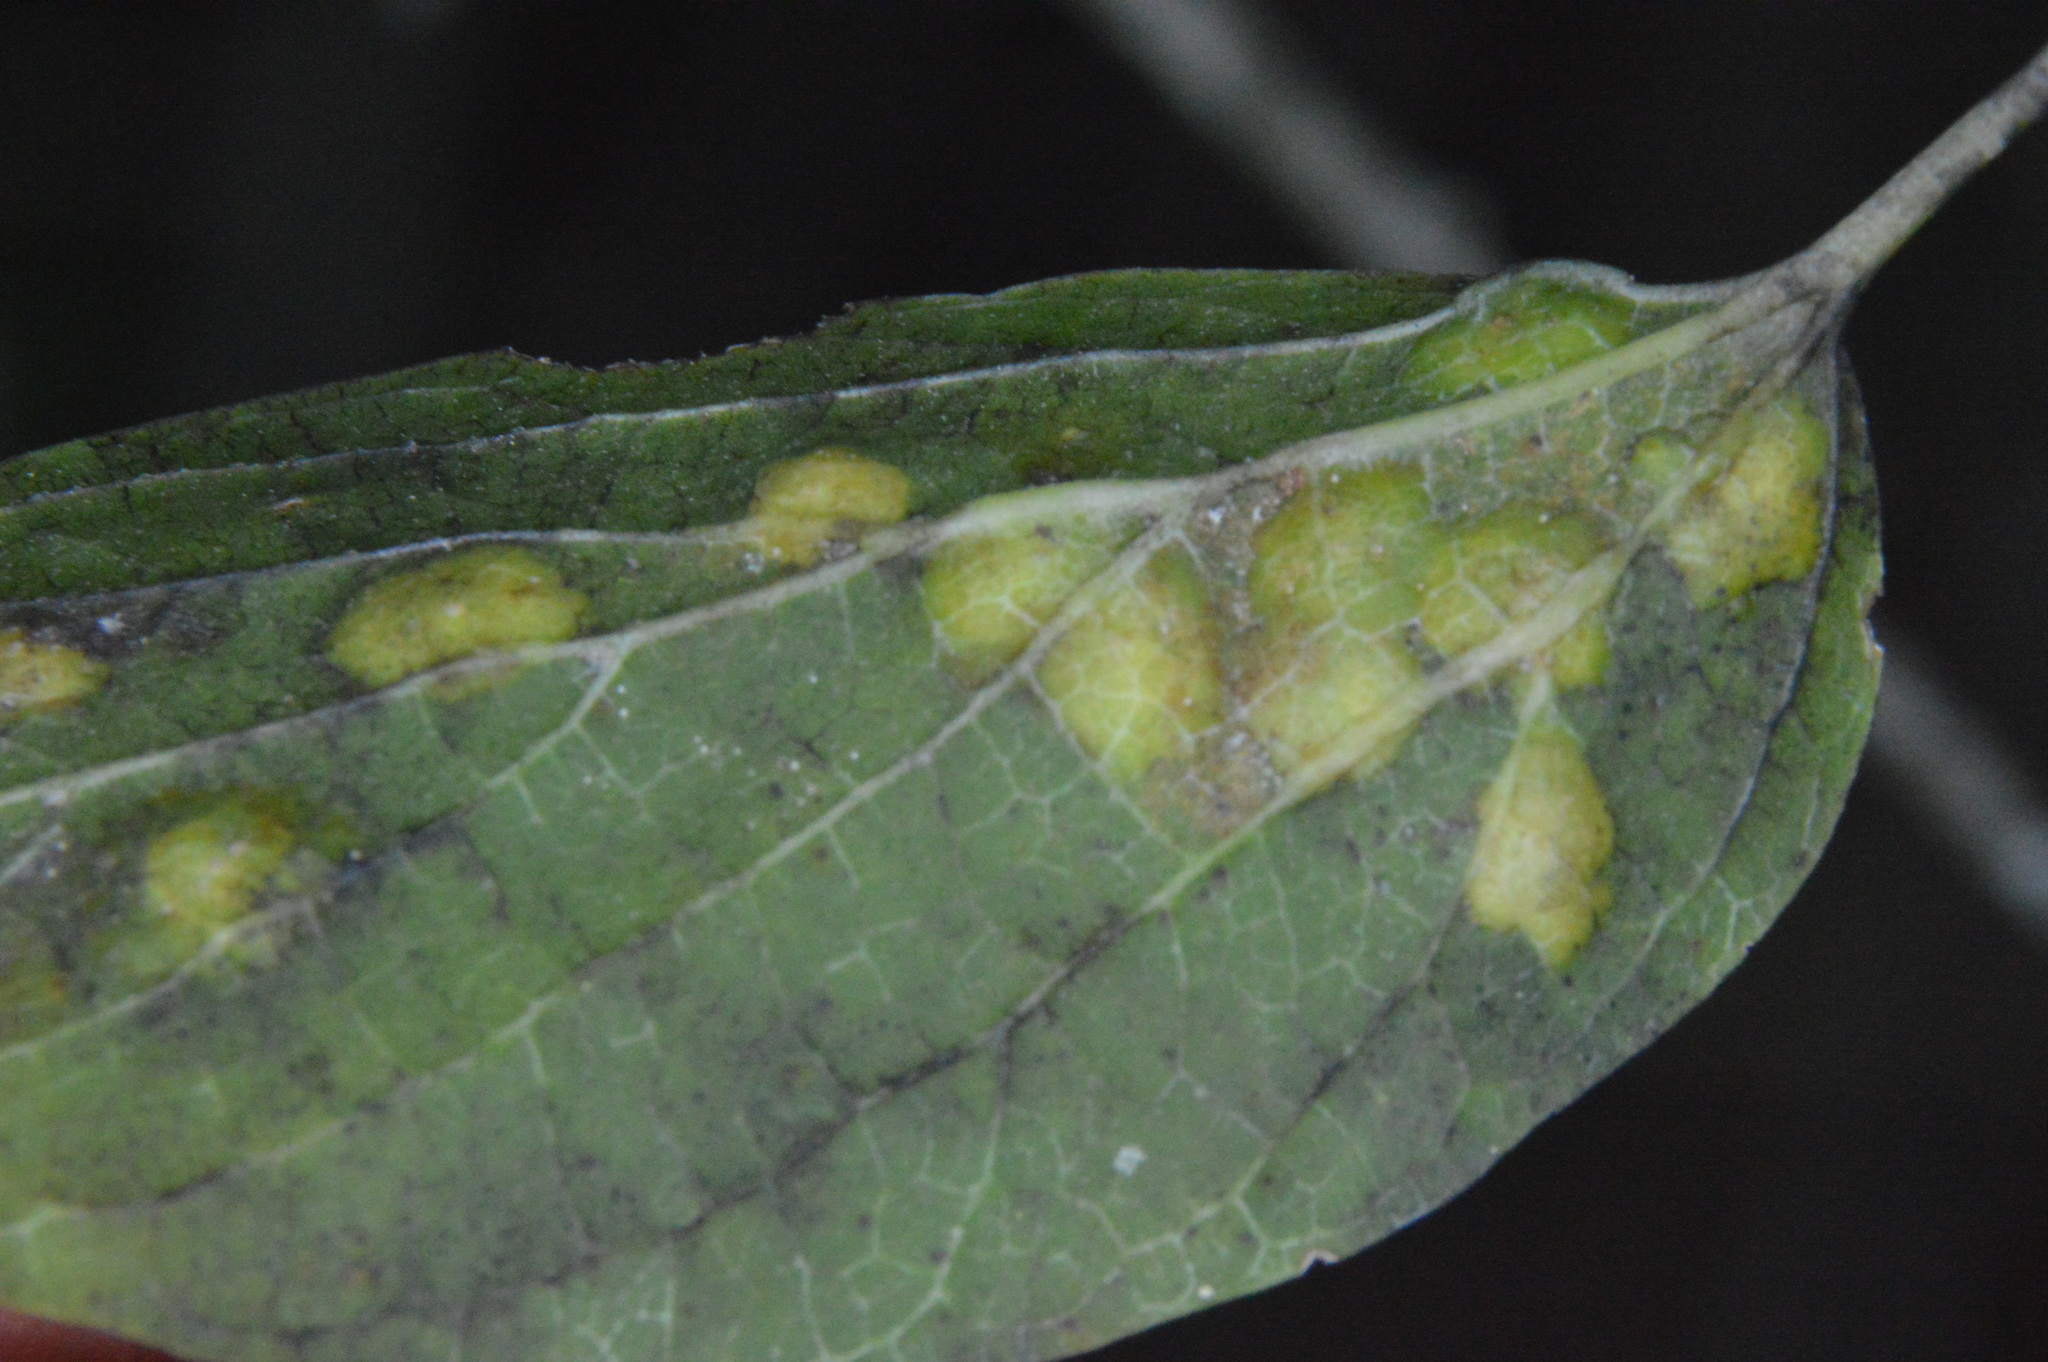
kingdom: Animalia
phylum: Arthropoda
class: Insecta
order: Hemiptera
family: Aphalaridae
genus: Pachypsylla
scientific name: Pachypsylla celtidisvesicula
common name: Hackberry blister gall psyllid
